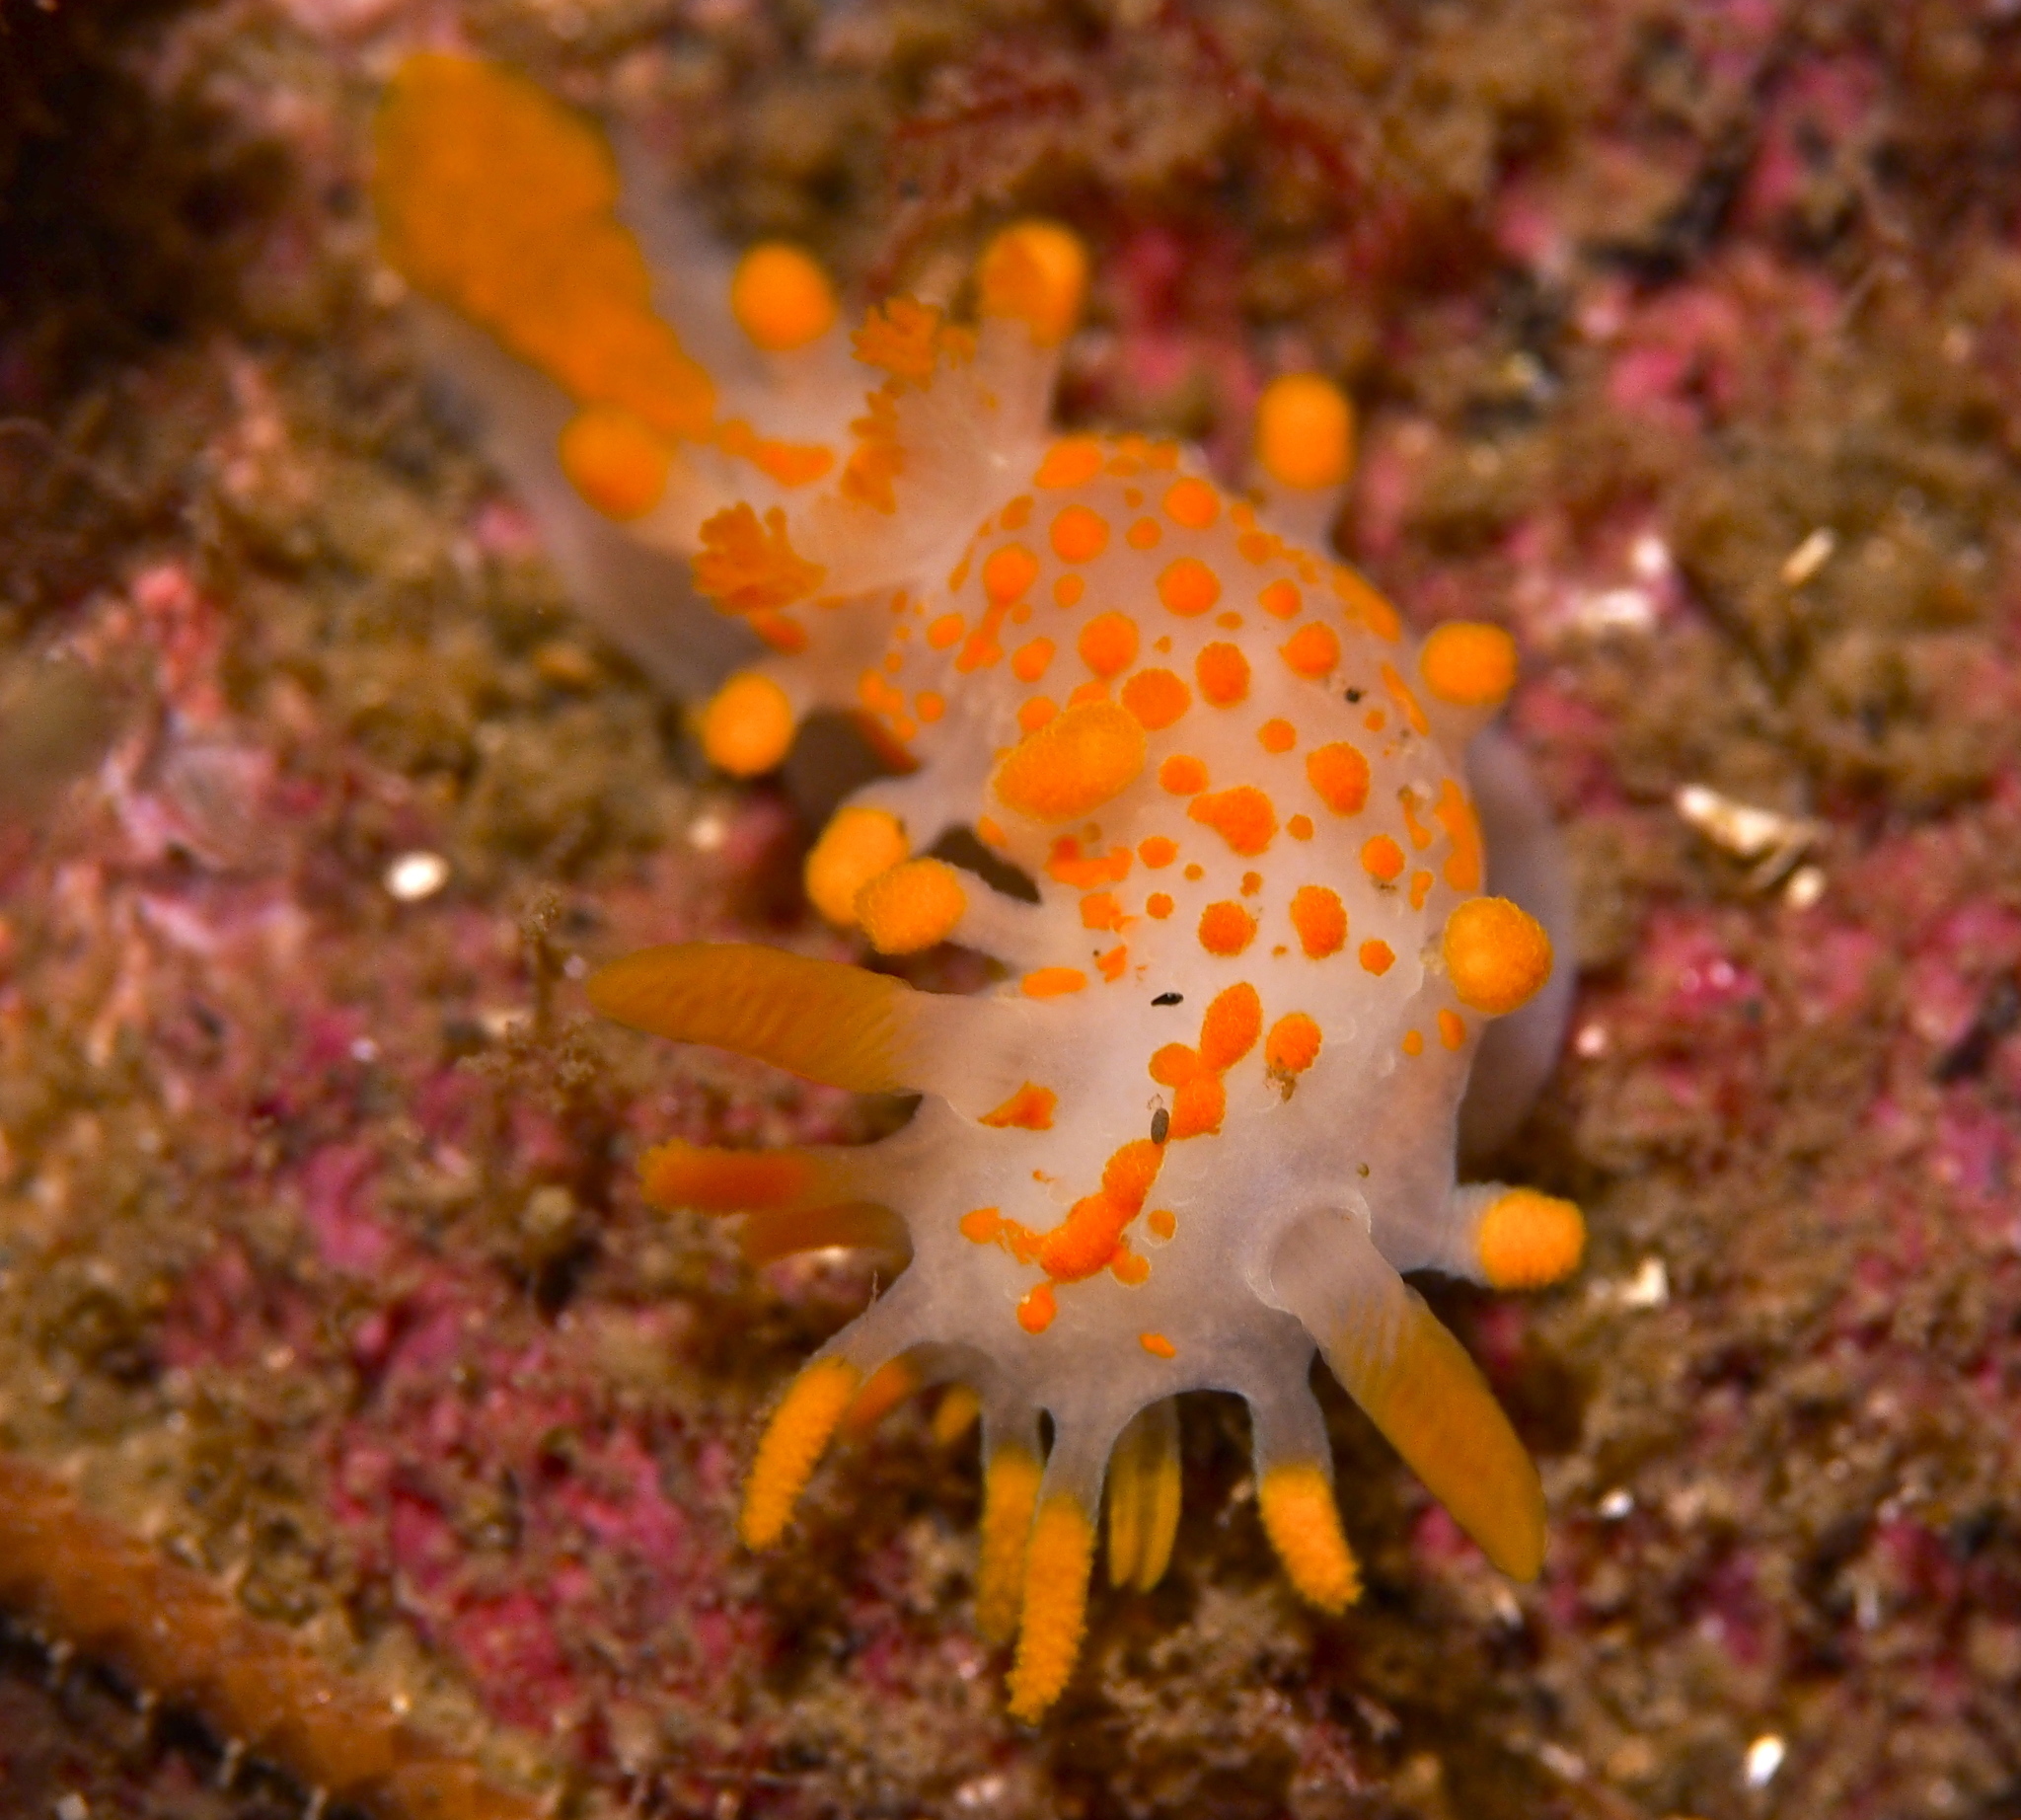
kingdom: Animalia
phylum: Mollusca
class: Gastropoda
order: Nudibranchia
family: Polyceridae
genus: Limacia
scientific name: Limacia clavigera
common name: Orange-clubbed sea slug
